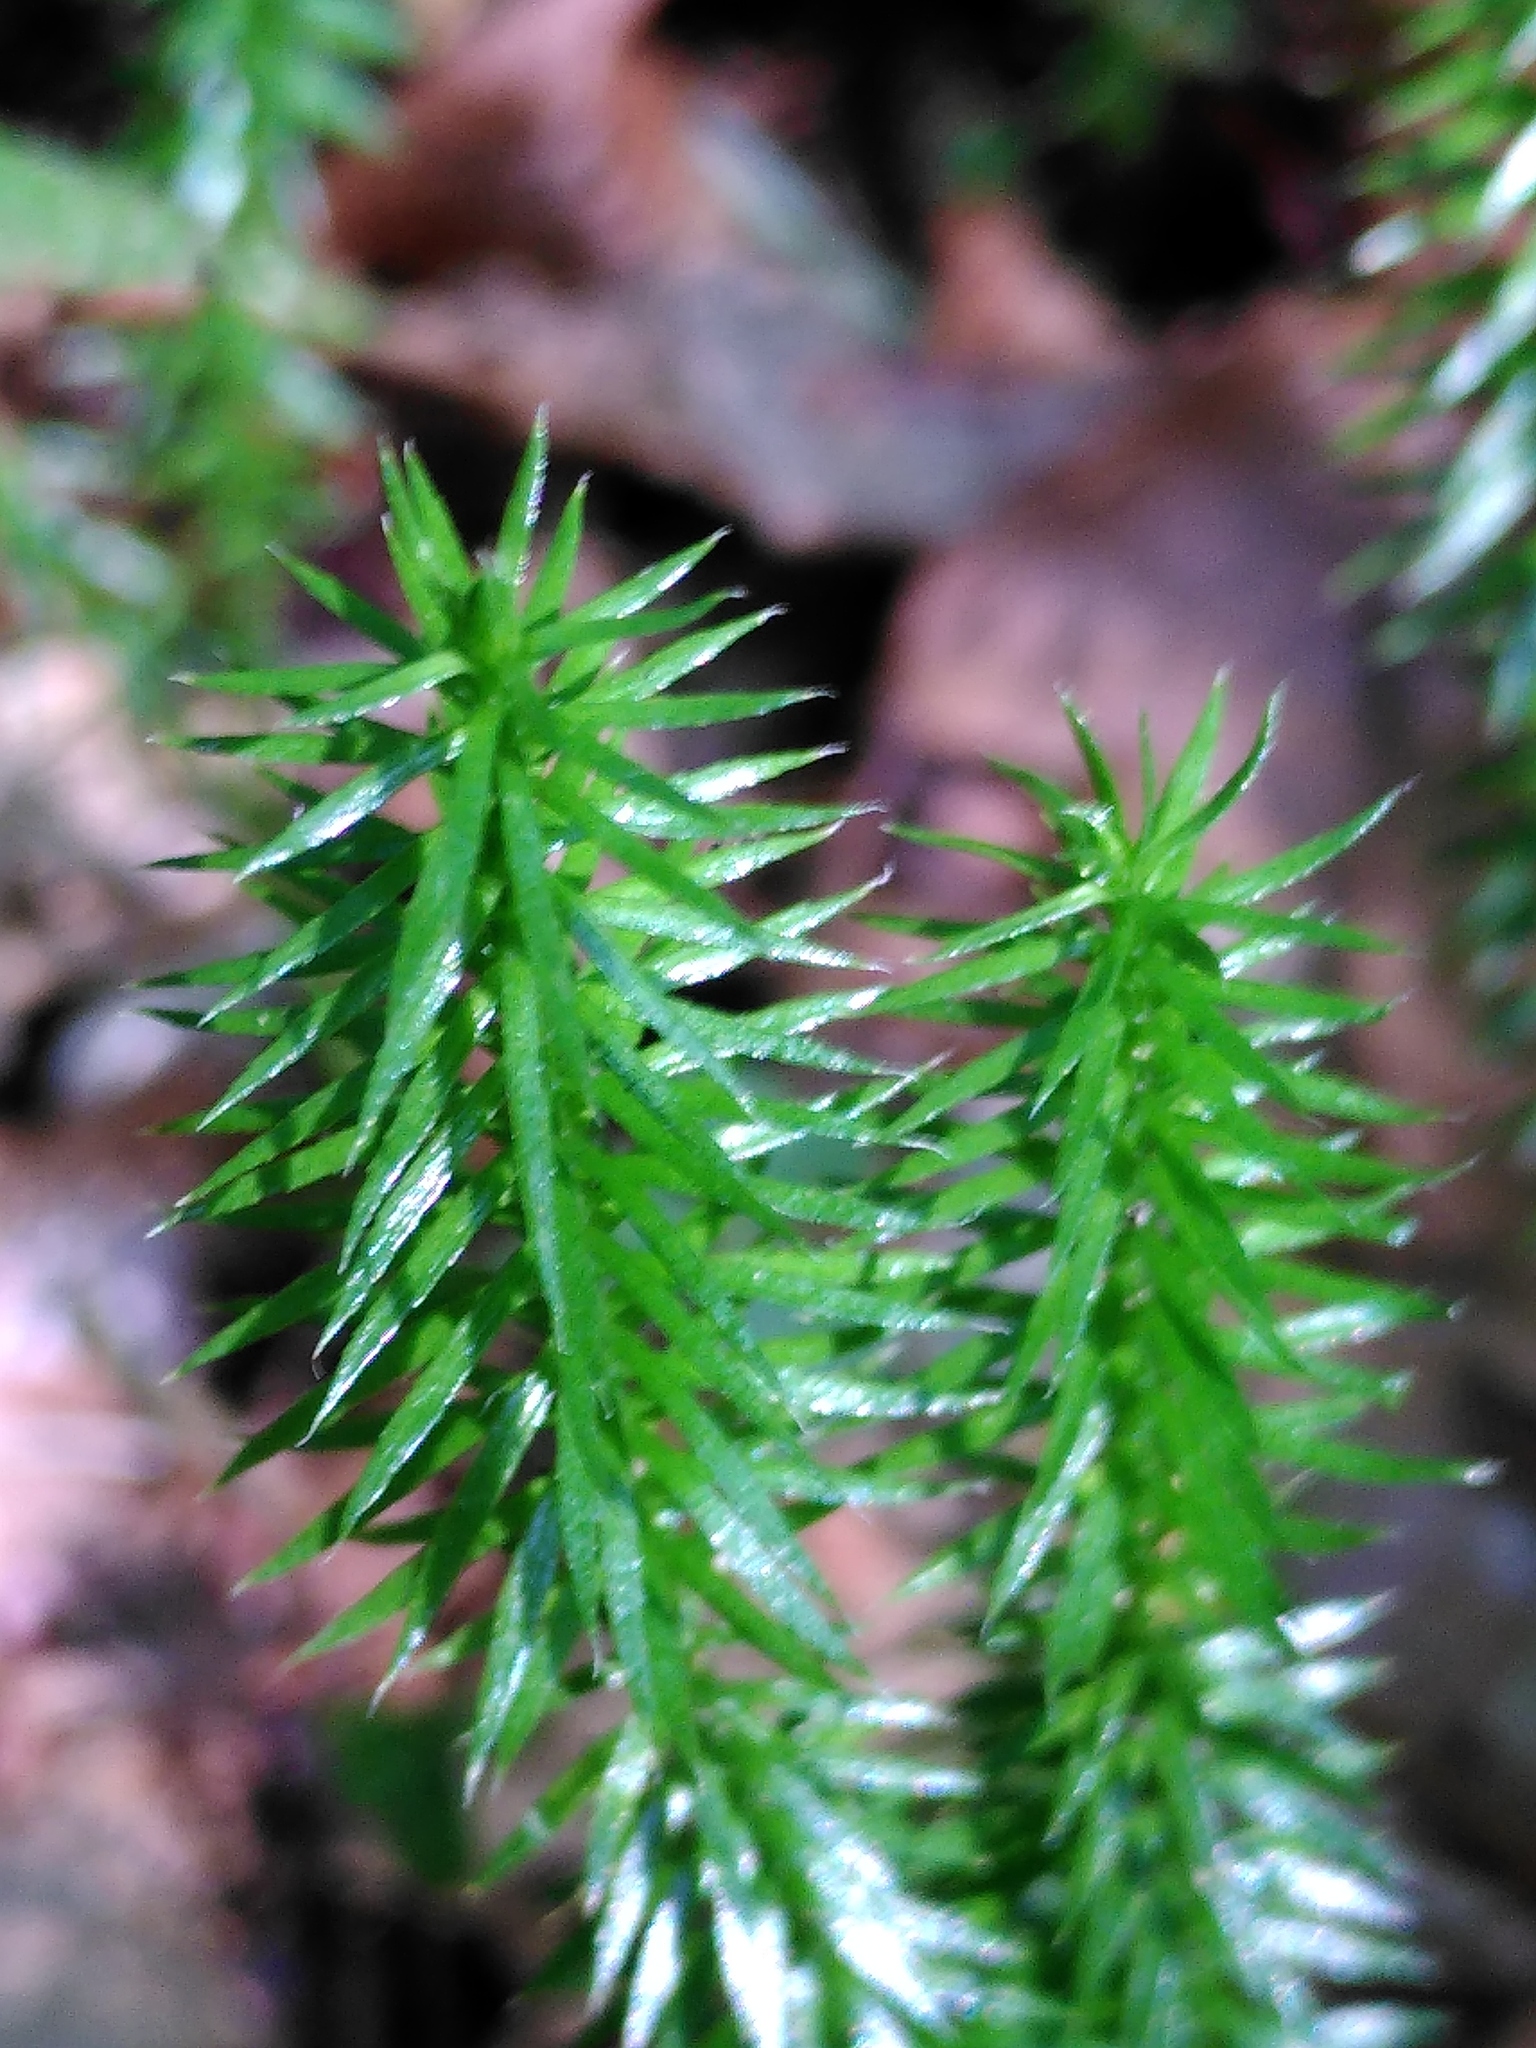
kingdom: Plantae
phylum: Tracheophyta
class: Lycopodiopsida
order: Lycopodiales
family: Lycopodiaceae
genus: Spinulum
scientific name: Spinulum annotinum
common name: Interrupted club-moss
